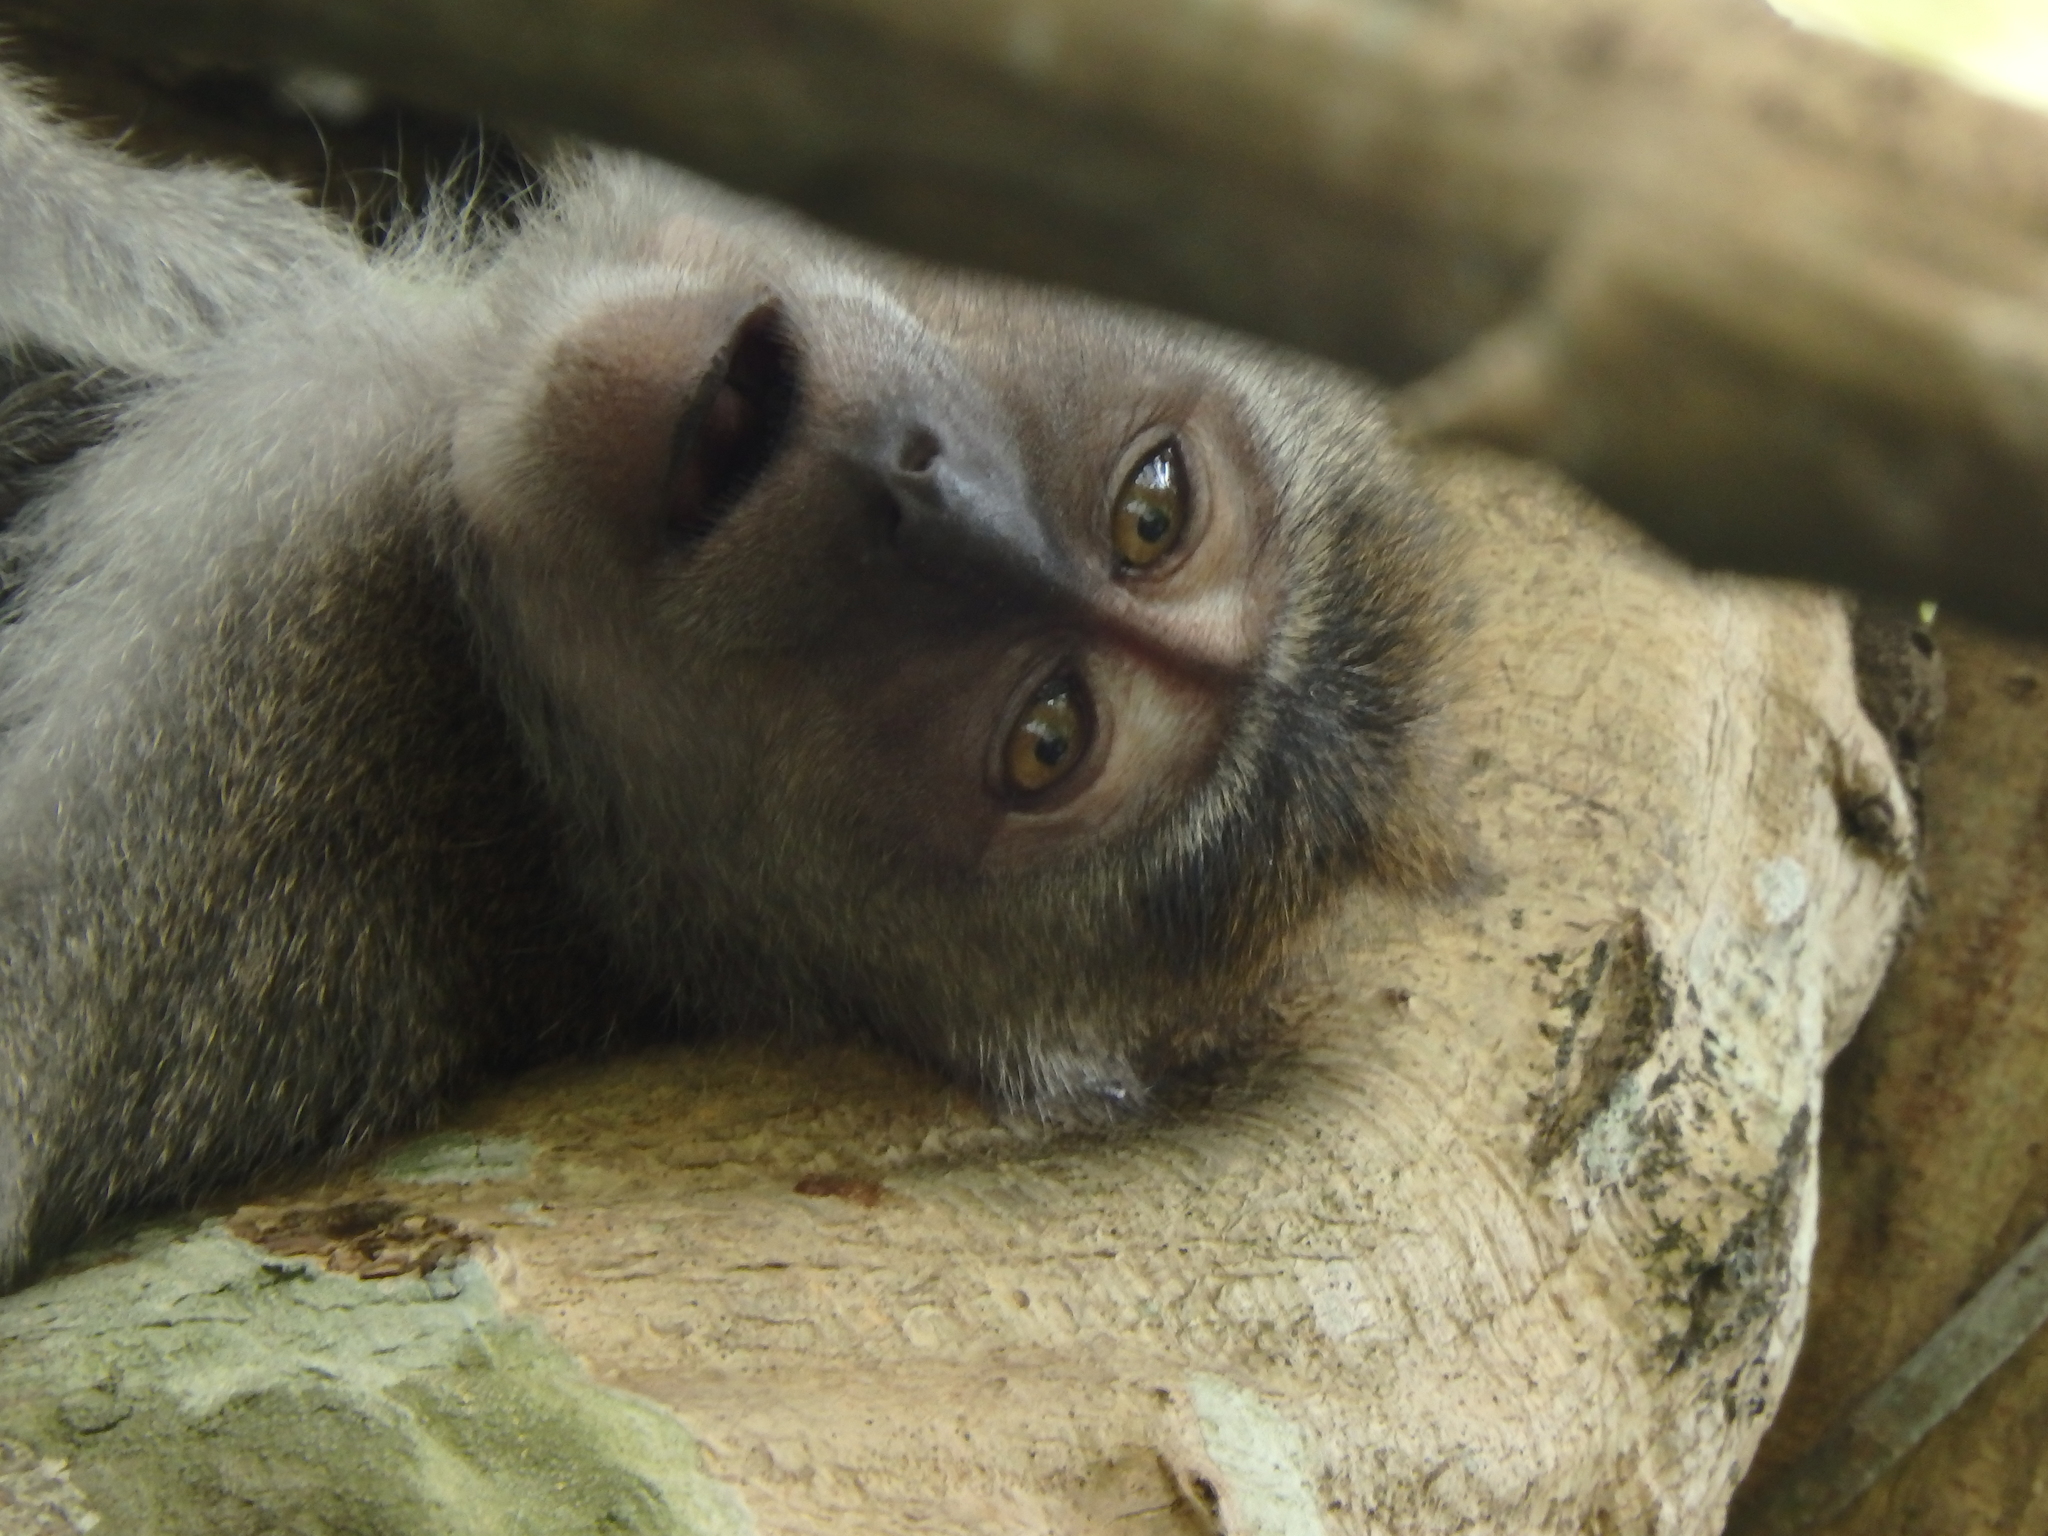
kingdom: Animalia
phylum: Chordata
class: Mammalia
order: Primates
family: Cercopithecidae
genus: Macaca
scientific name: Macaca fascicularis
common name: Crab-eating macaque
